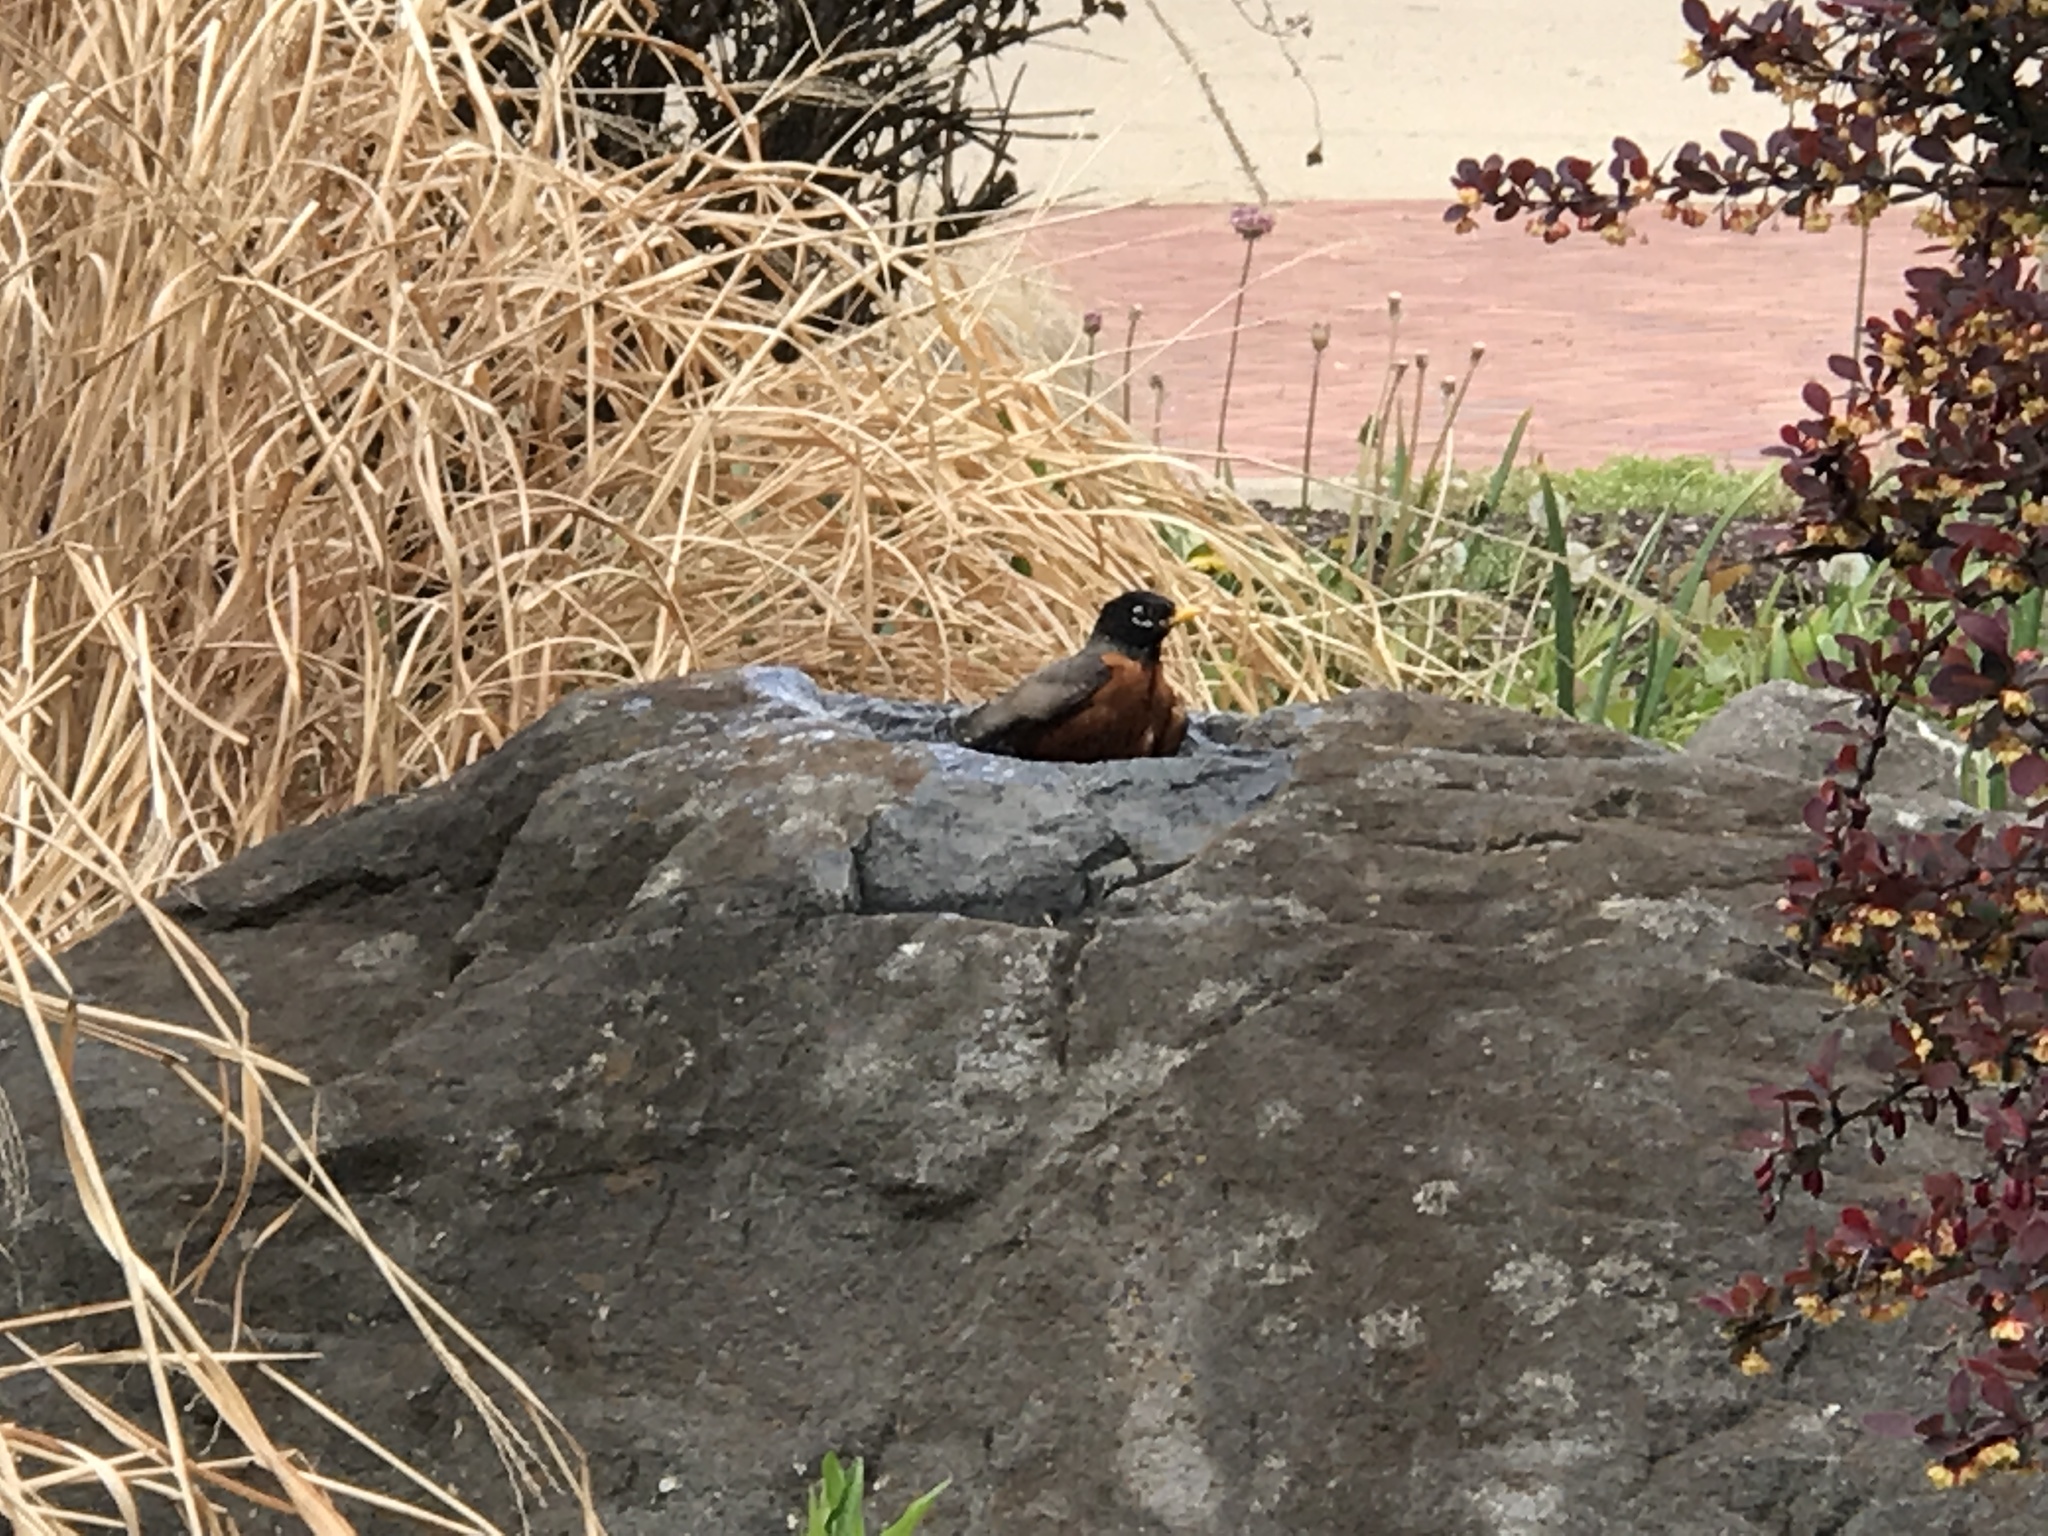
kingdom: Animalia
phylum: Chordata
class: Aves
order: Passeriformes
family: Turdidae
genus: Turdus
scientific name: Turdus migratorius
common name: American robin
